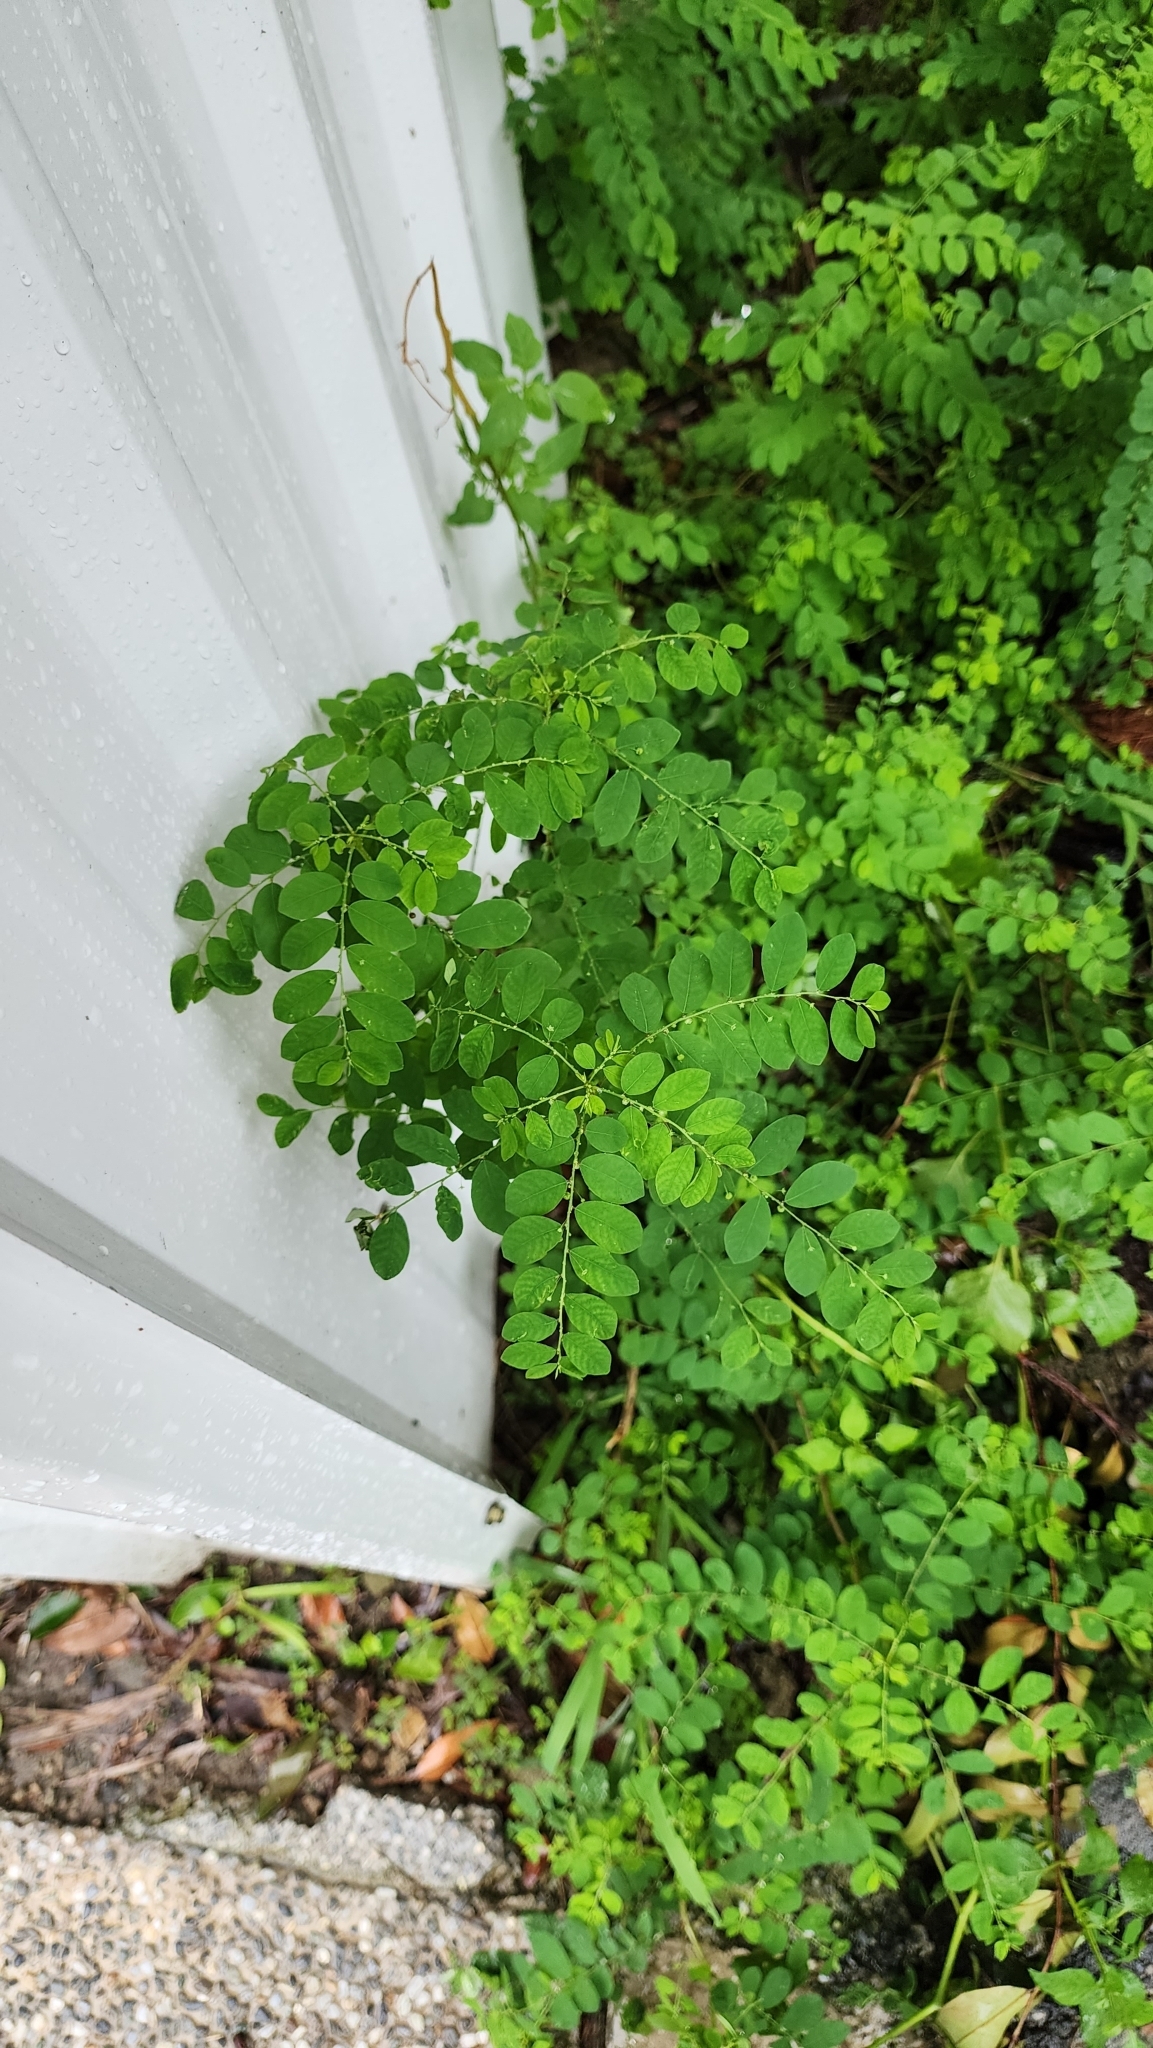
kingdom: Plantae
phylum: Tracheophyta
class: Magnoliopsida
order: Malpighiales
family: Phyllanthaceae
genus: Phyllanthus
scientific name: Phyllanthus tenellus
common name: Mascarene island leaf-flower
